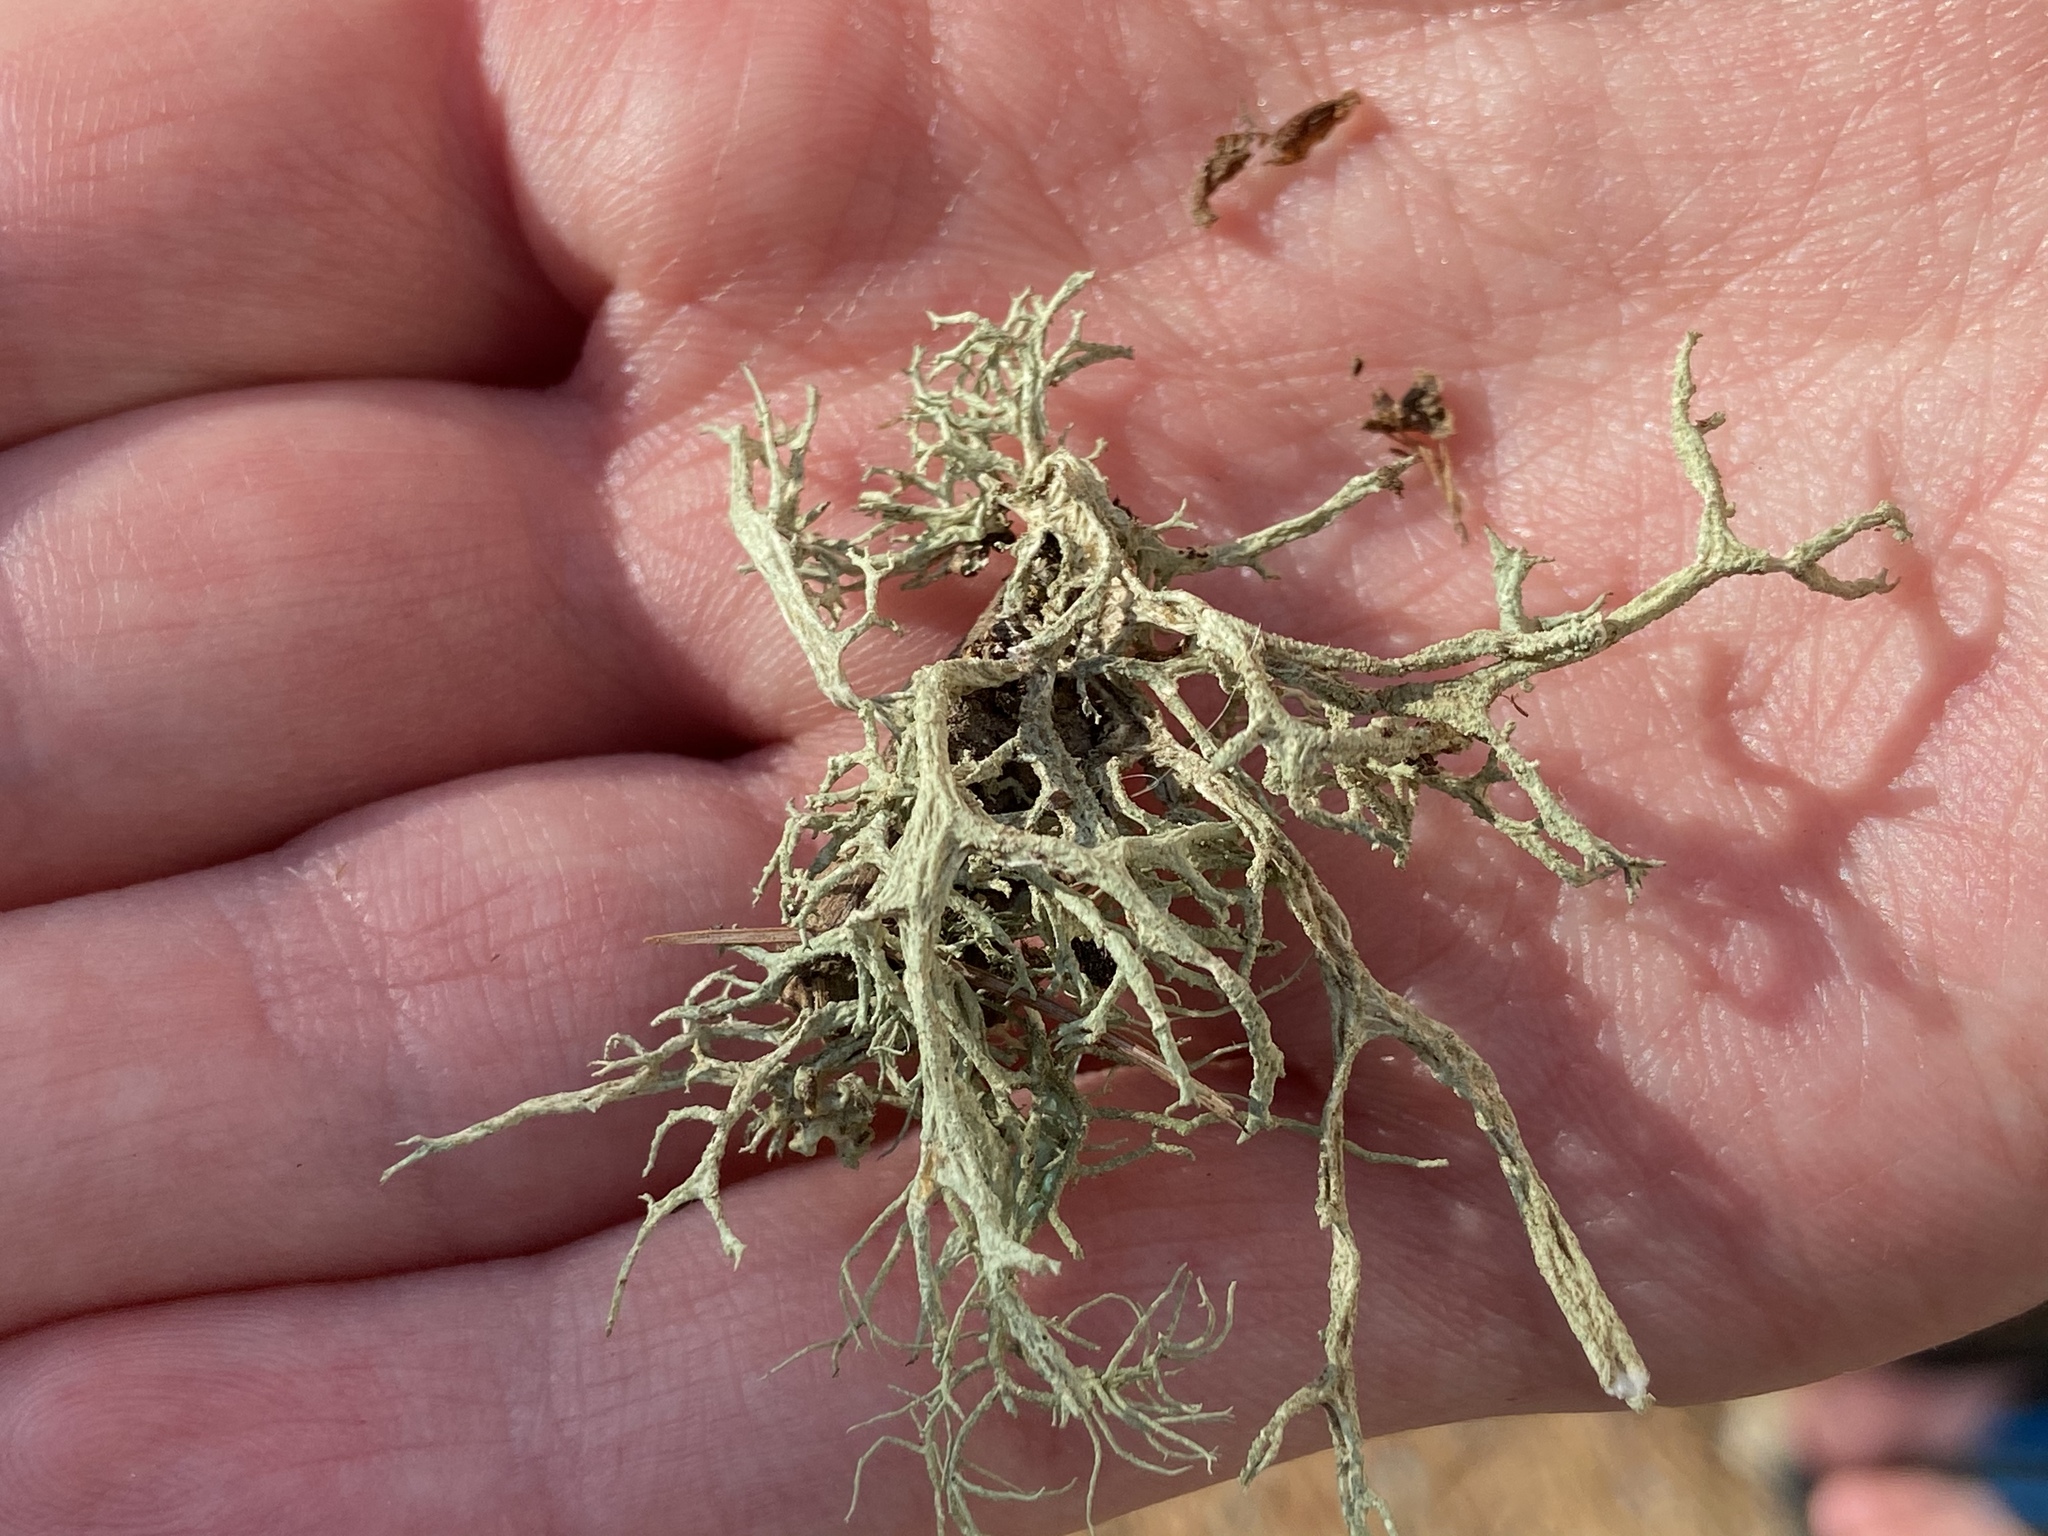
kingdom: Fungi
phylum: Ascomycota
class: Lecanoromycetes
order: Lecanorales
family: Parmeliaceae
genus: Evernia
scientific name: Evernia mesomorpha
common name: Boreal oak moss lichen
